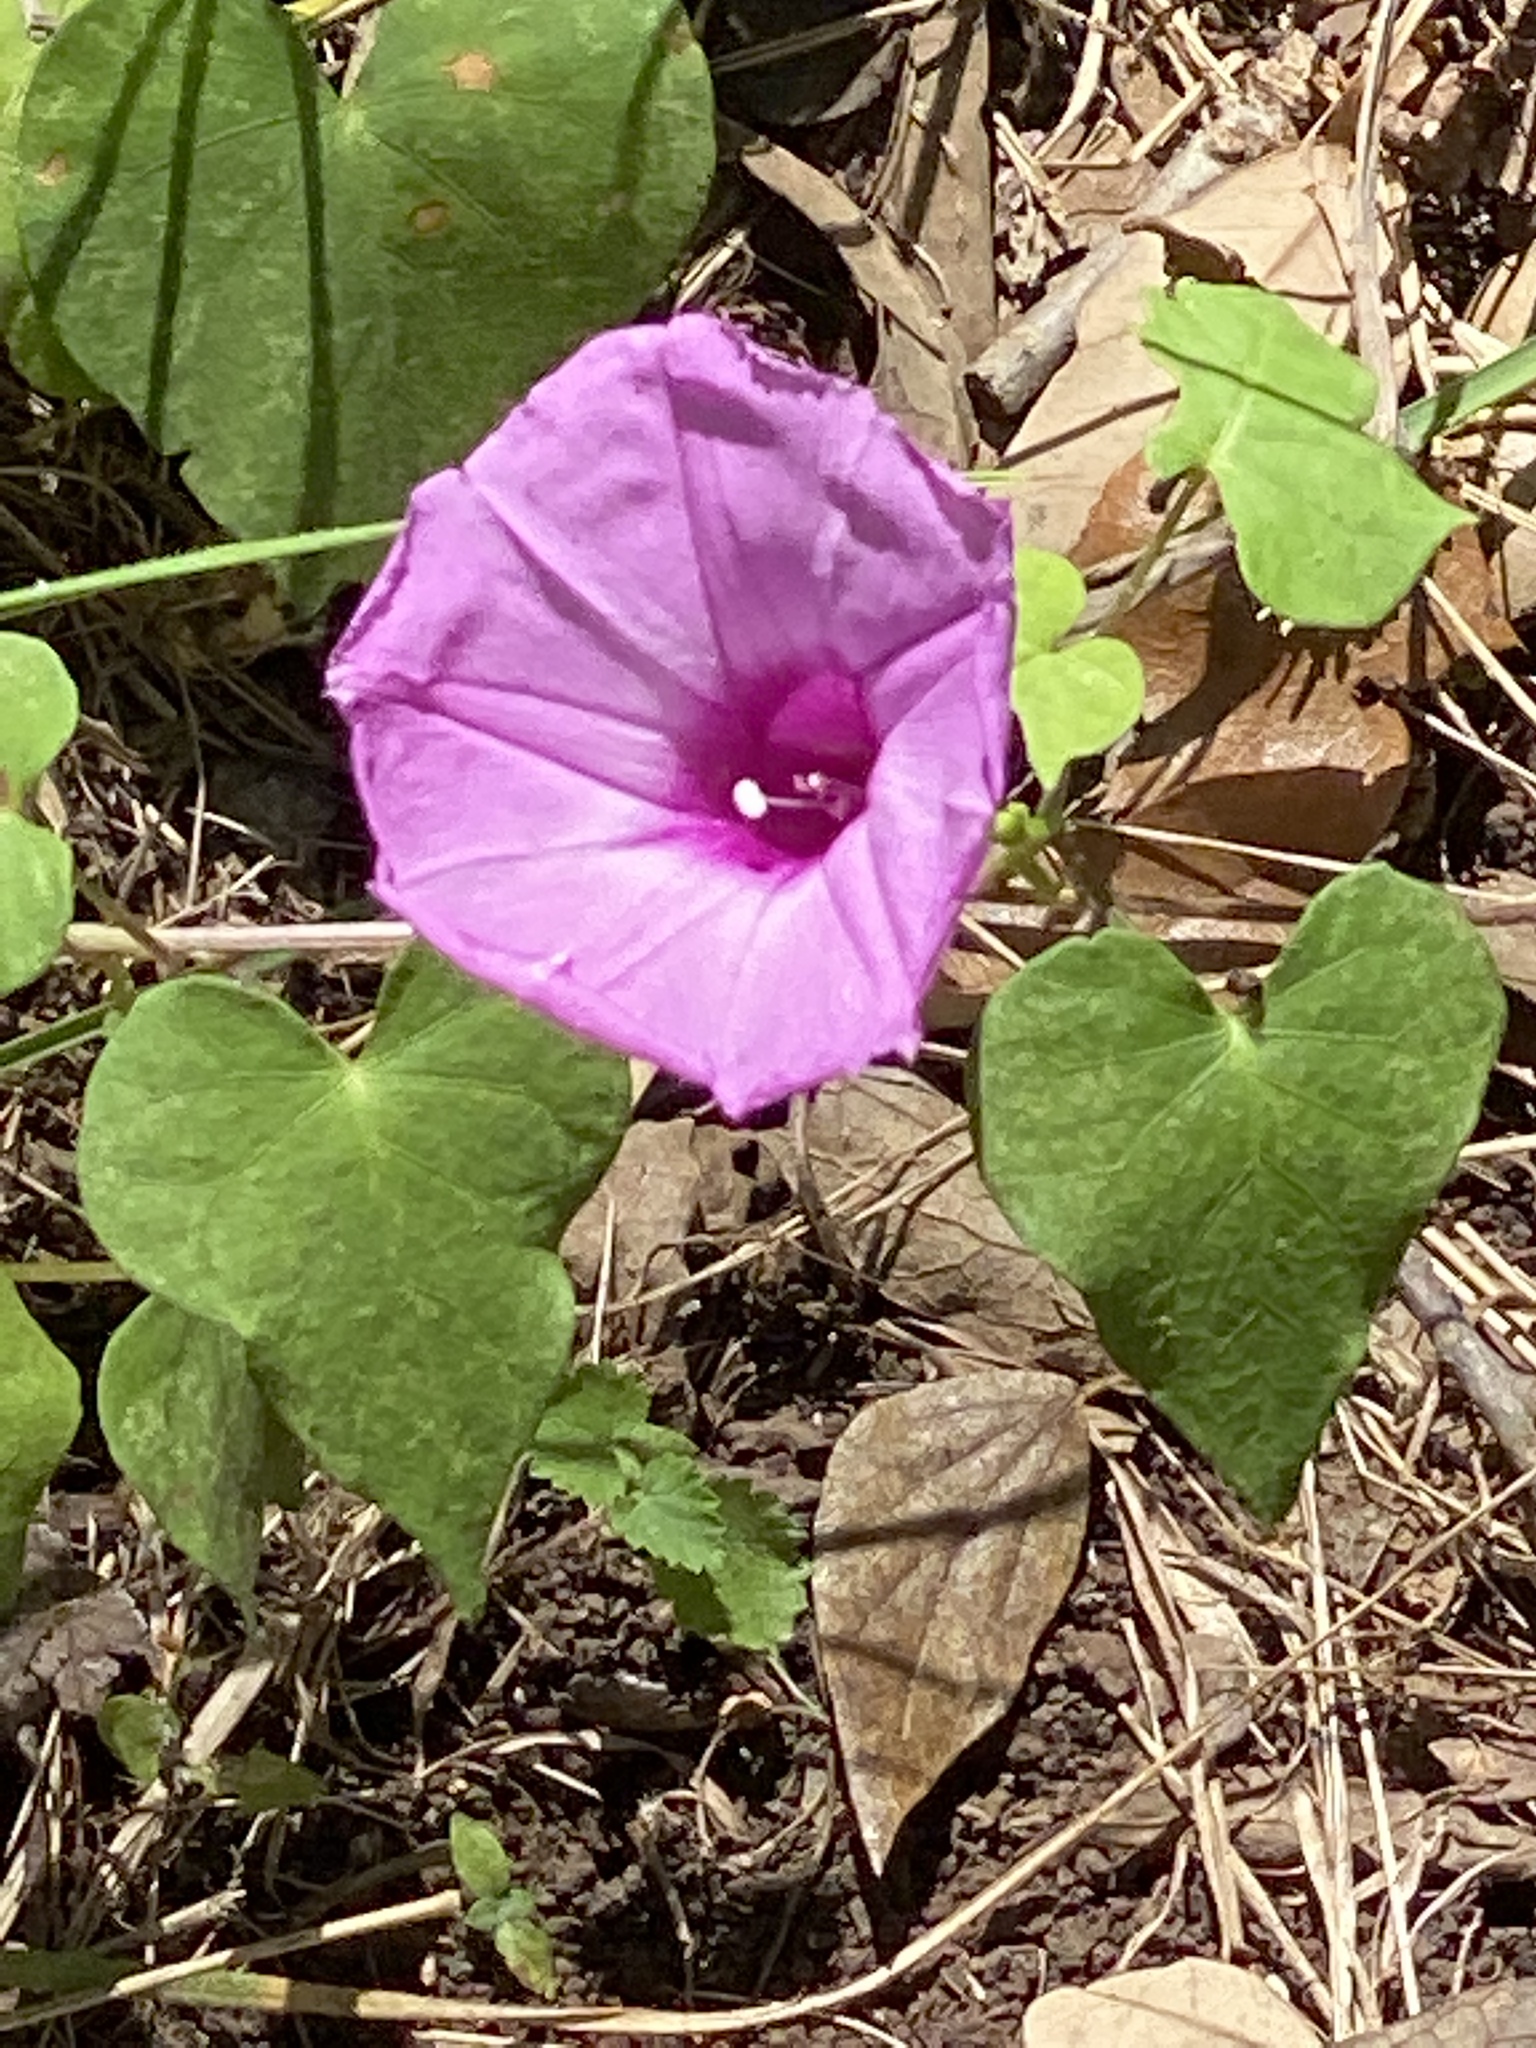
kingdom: Plantae
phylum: Tracheophyta
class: Magnoliopsida
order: Solanales
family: Convolvulaceae
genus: Ipomoea
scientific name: Ipomoea cordatotriloba
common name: Cotton morning glory
